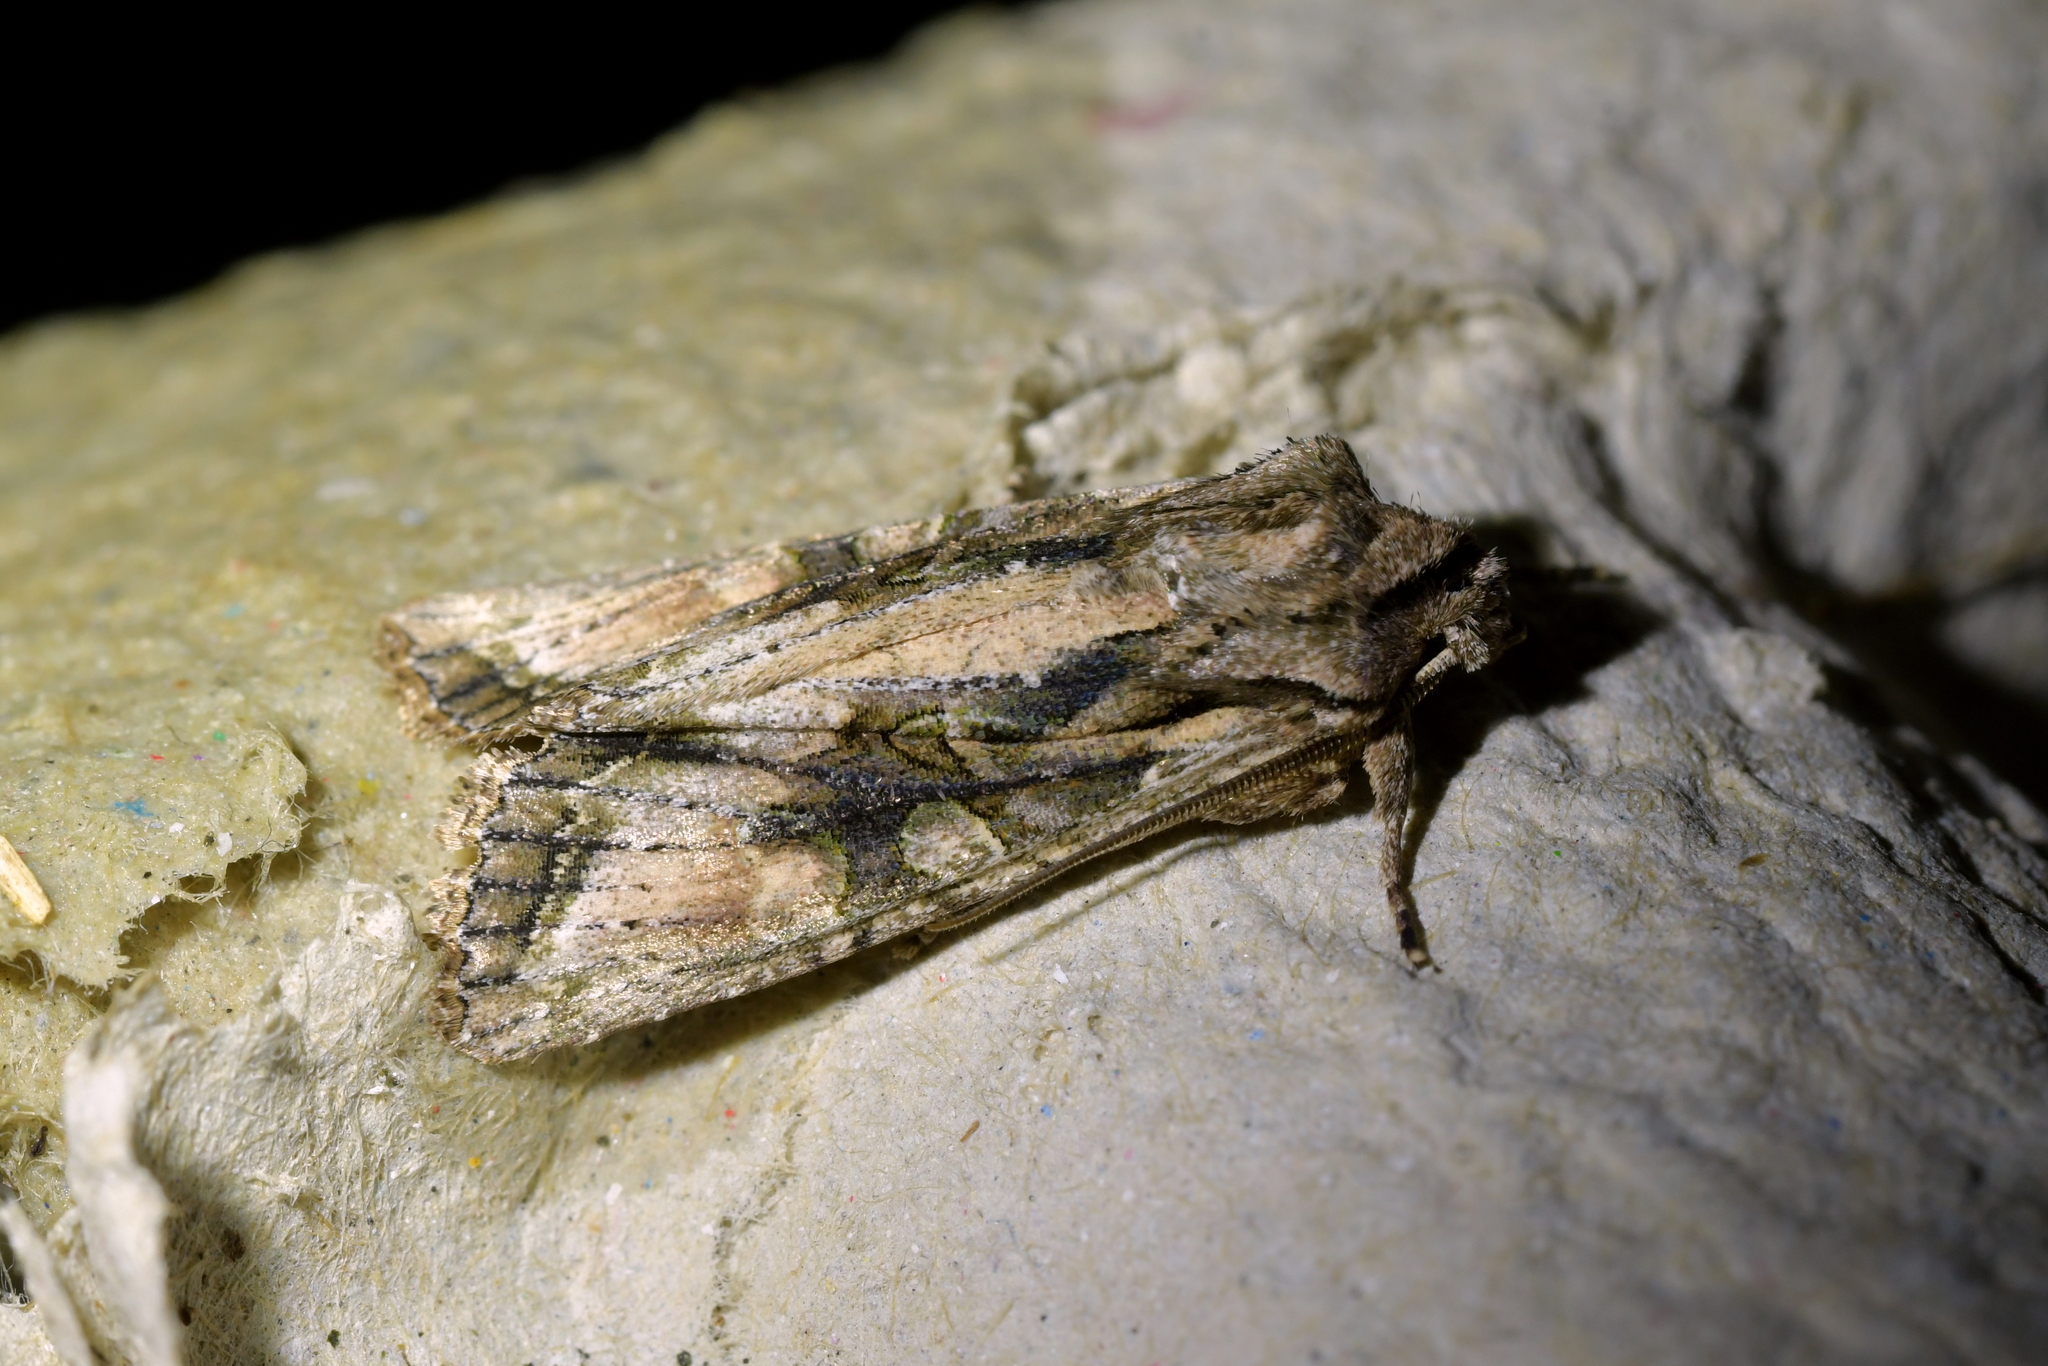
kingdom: Animalia
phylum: Arthropoda
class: Insecta
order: Lepidoptera
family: Noctuidae
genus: Ichneutica
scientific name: Ichneutica mutans
